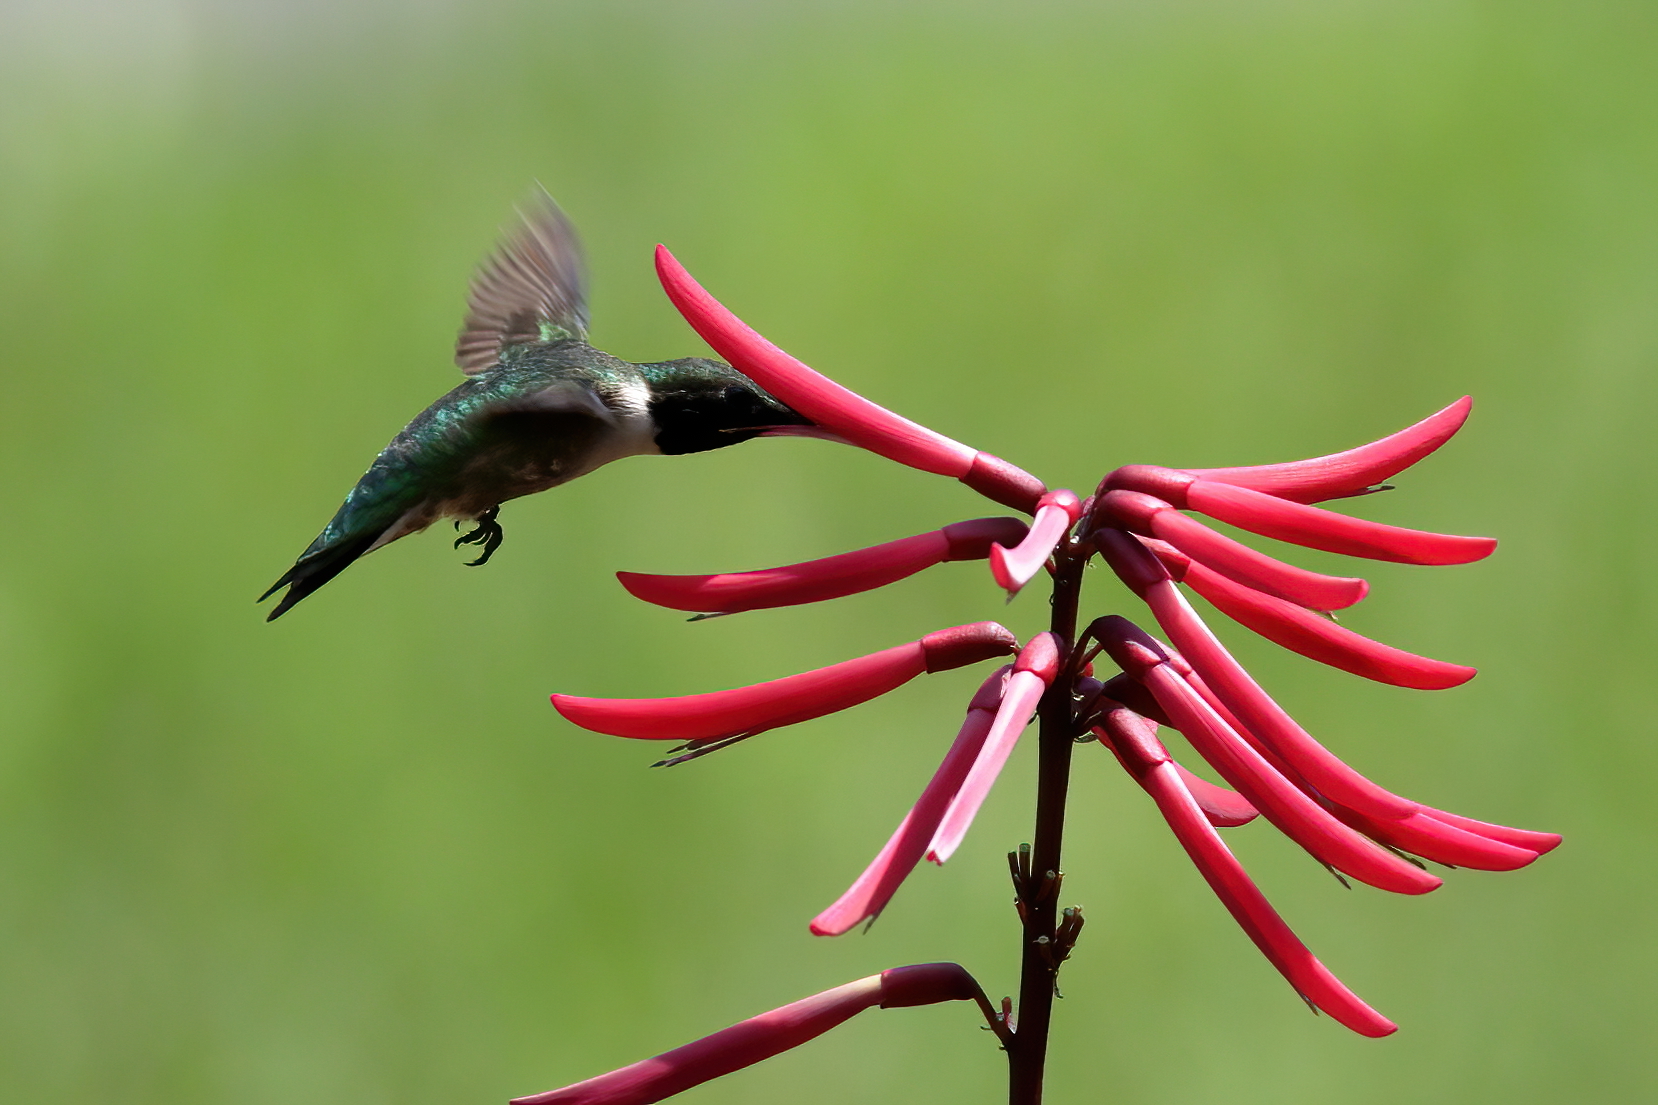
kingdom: Animalia
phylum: Chordata
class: Aves
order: Apodiformes
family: Trochilidae
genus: Archilochus
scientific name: Archilochus colubris
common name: Ruby-throated hummingbird
